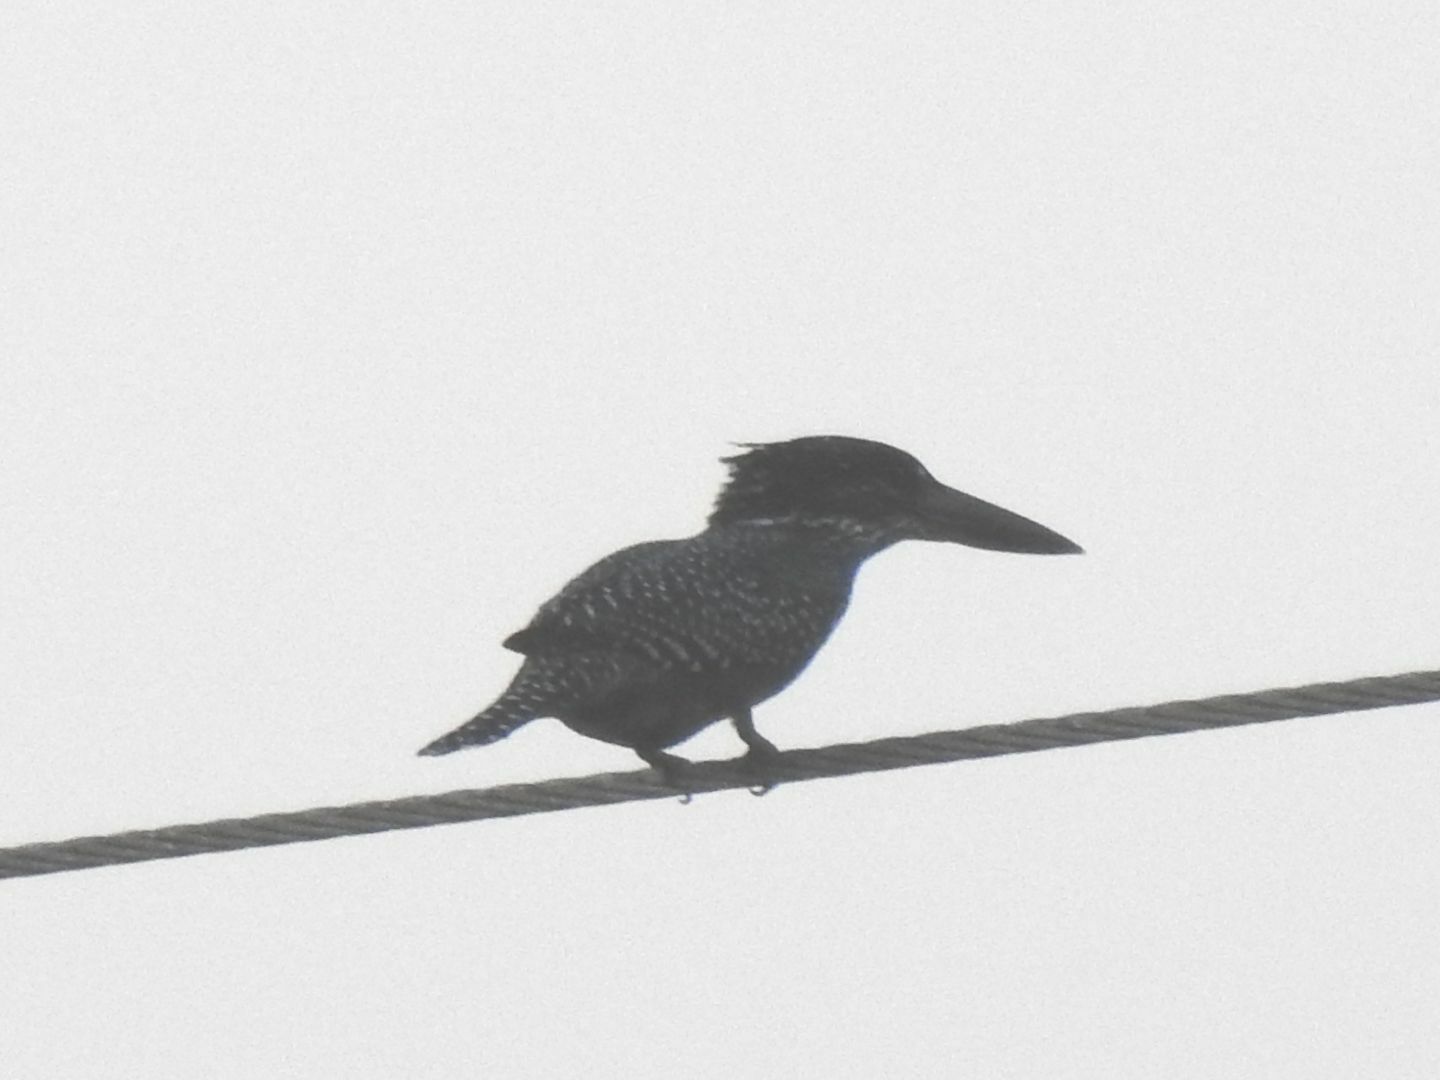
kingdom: Animalia
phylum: Chordata
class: Aves
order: Coraciiformes
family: Alcedinidae
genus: Megaceryle
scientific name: Megaceryle maxima
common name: Giant kingfisher
